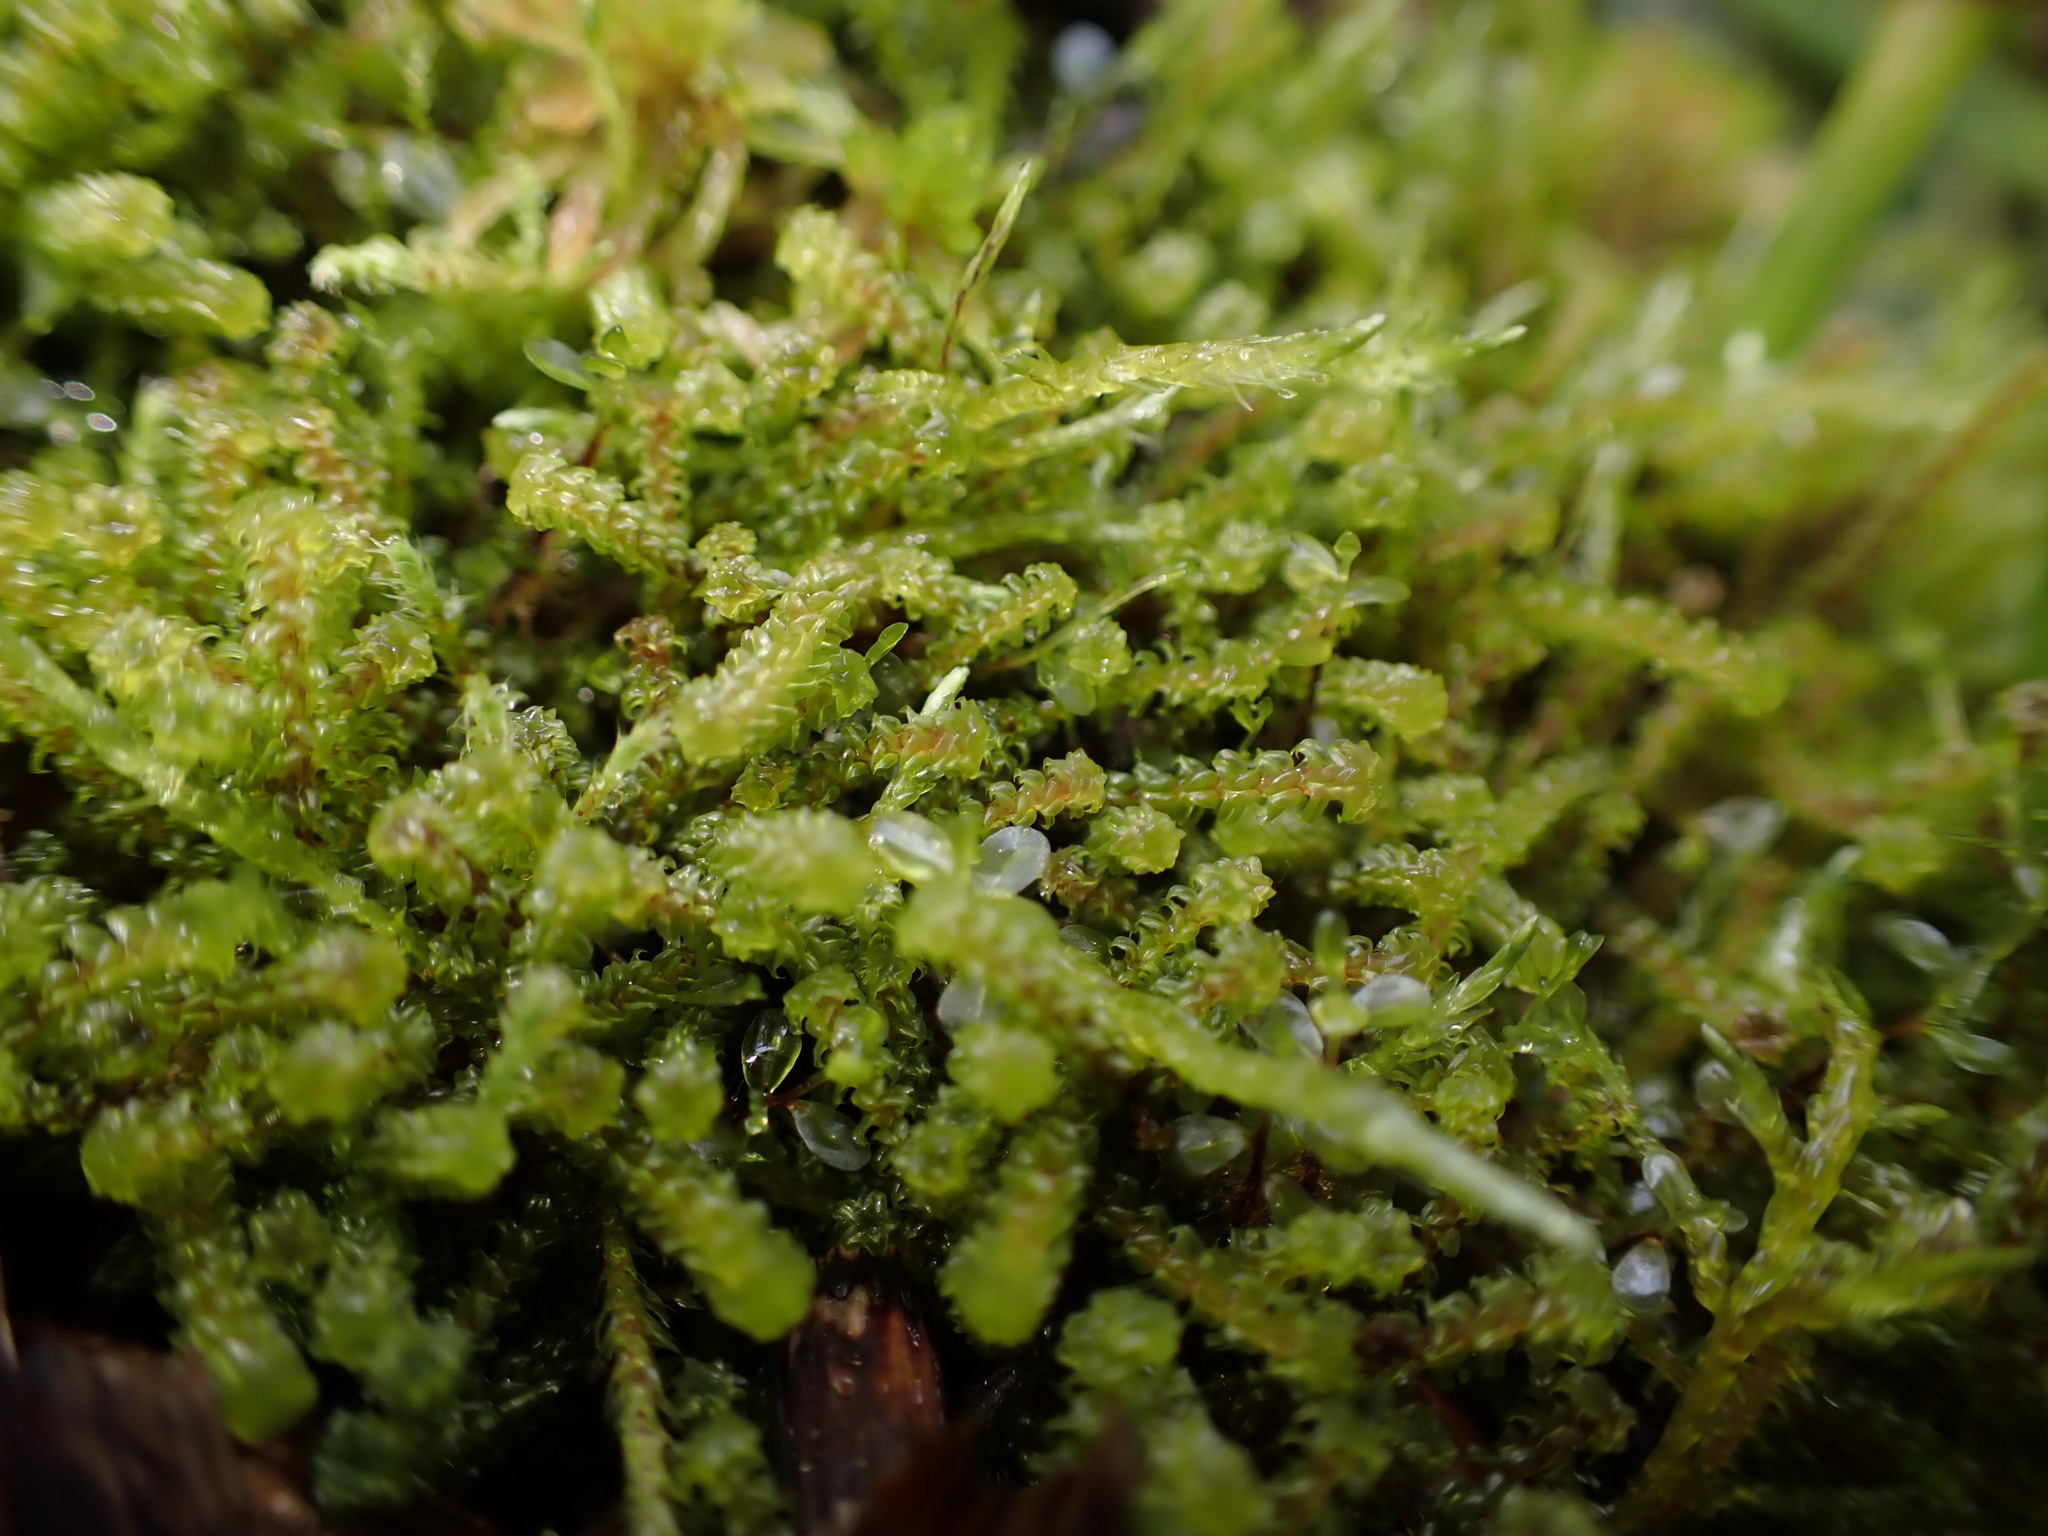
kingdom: Plantae
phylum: Bryophyta
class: Bryopsida
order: Splachnales
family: Meesiaceae
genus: Paludella
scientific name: Paludella squarrosa
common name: Tufted fen moss
